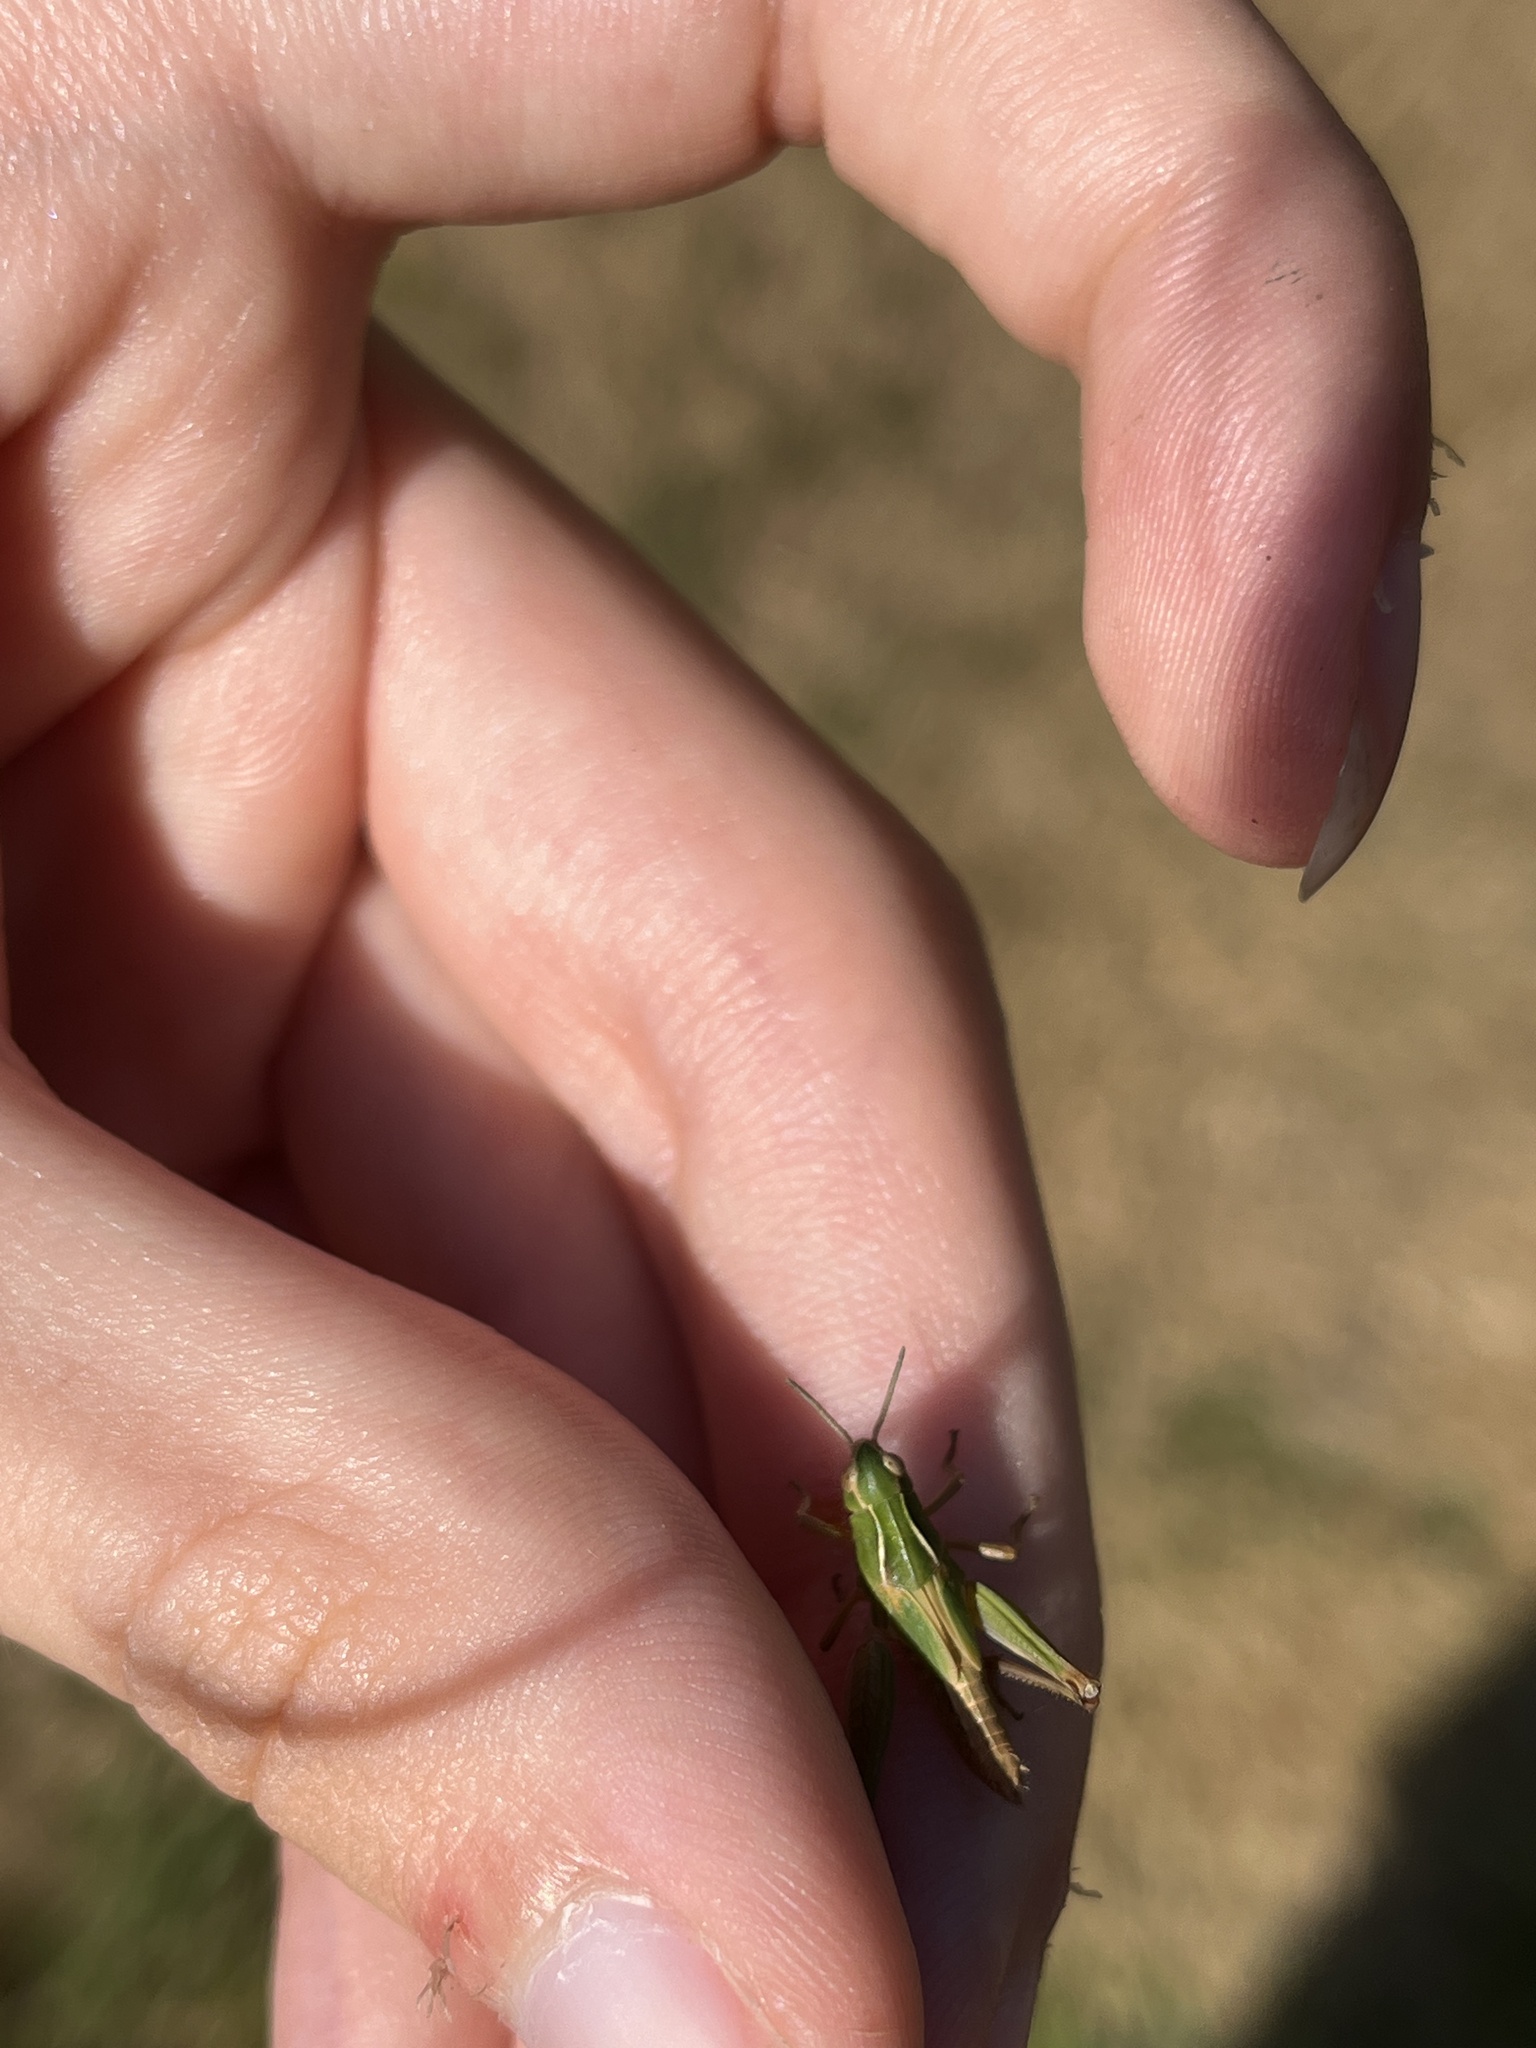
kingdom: Animalia
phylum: Arthropoda
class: Insecta
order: Orthoptera
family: Acrididae
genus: Omocestus
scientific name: Omocestus viridulus
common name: Common green grasshopper
